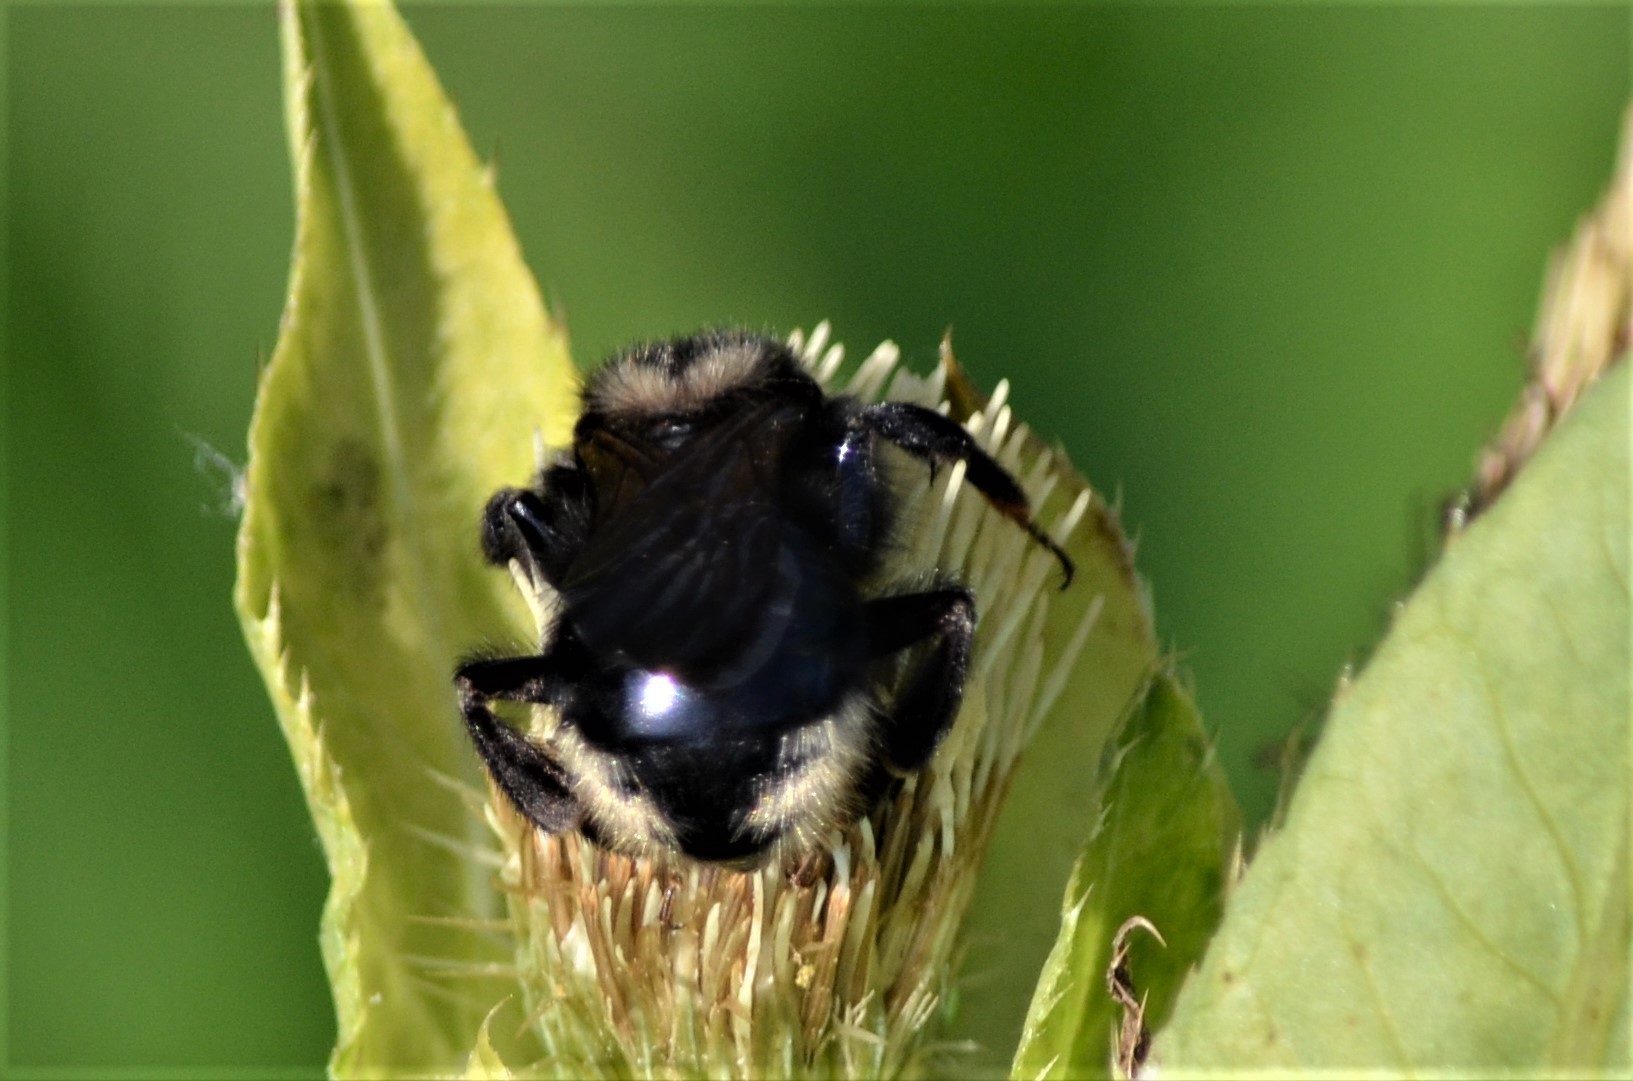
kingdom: Animalia
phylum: Arthropoda
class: Insecta
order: Hymenoptera
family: Apidae
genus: Bombus
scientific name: Bombus campestris
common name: Field cuckoo-bee
